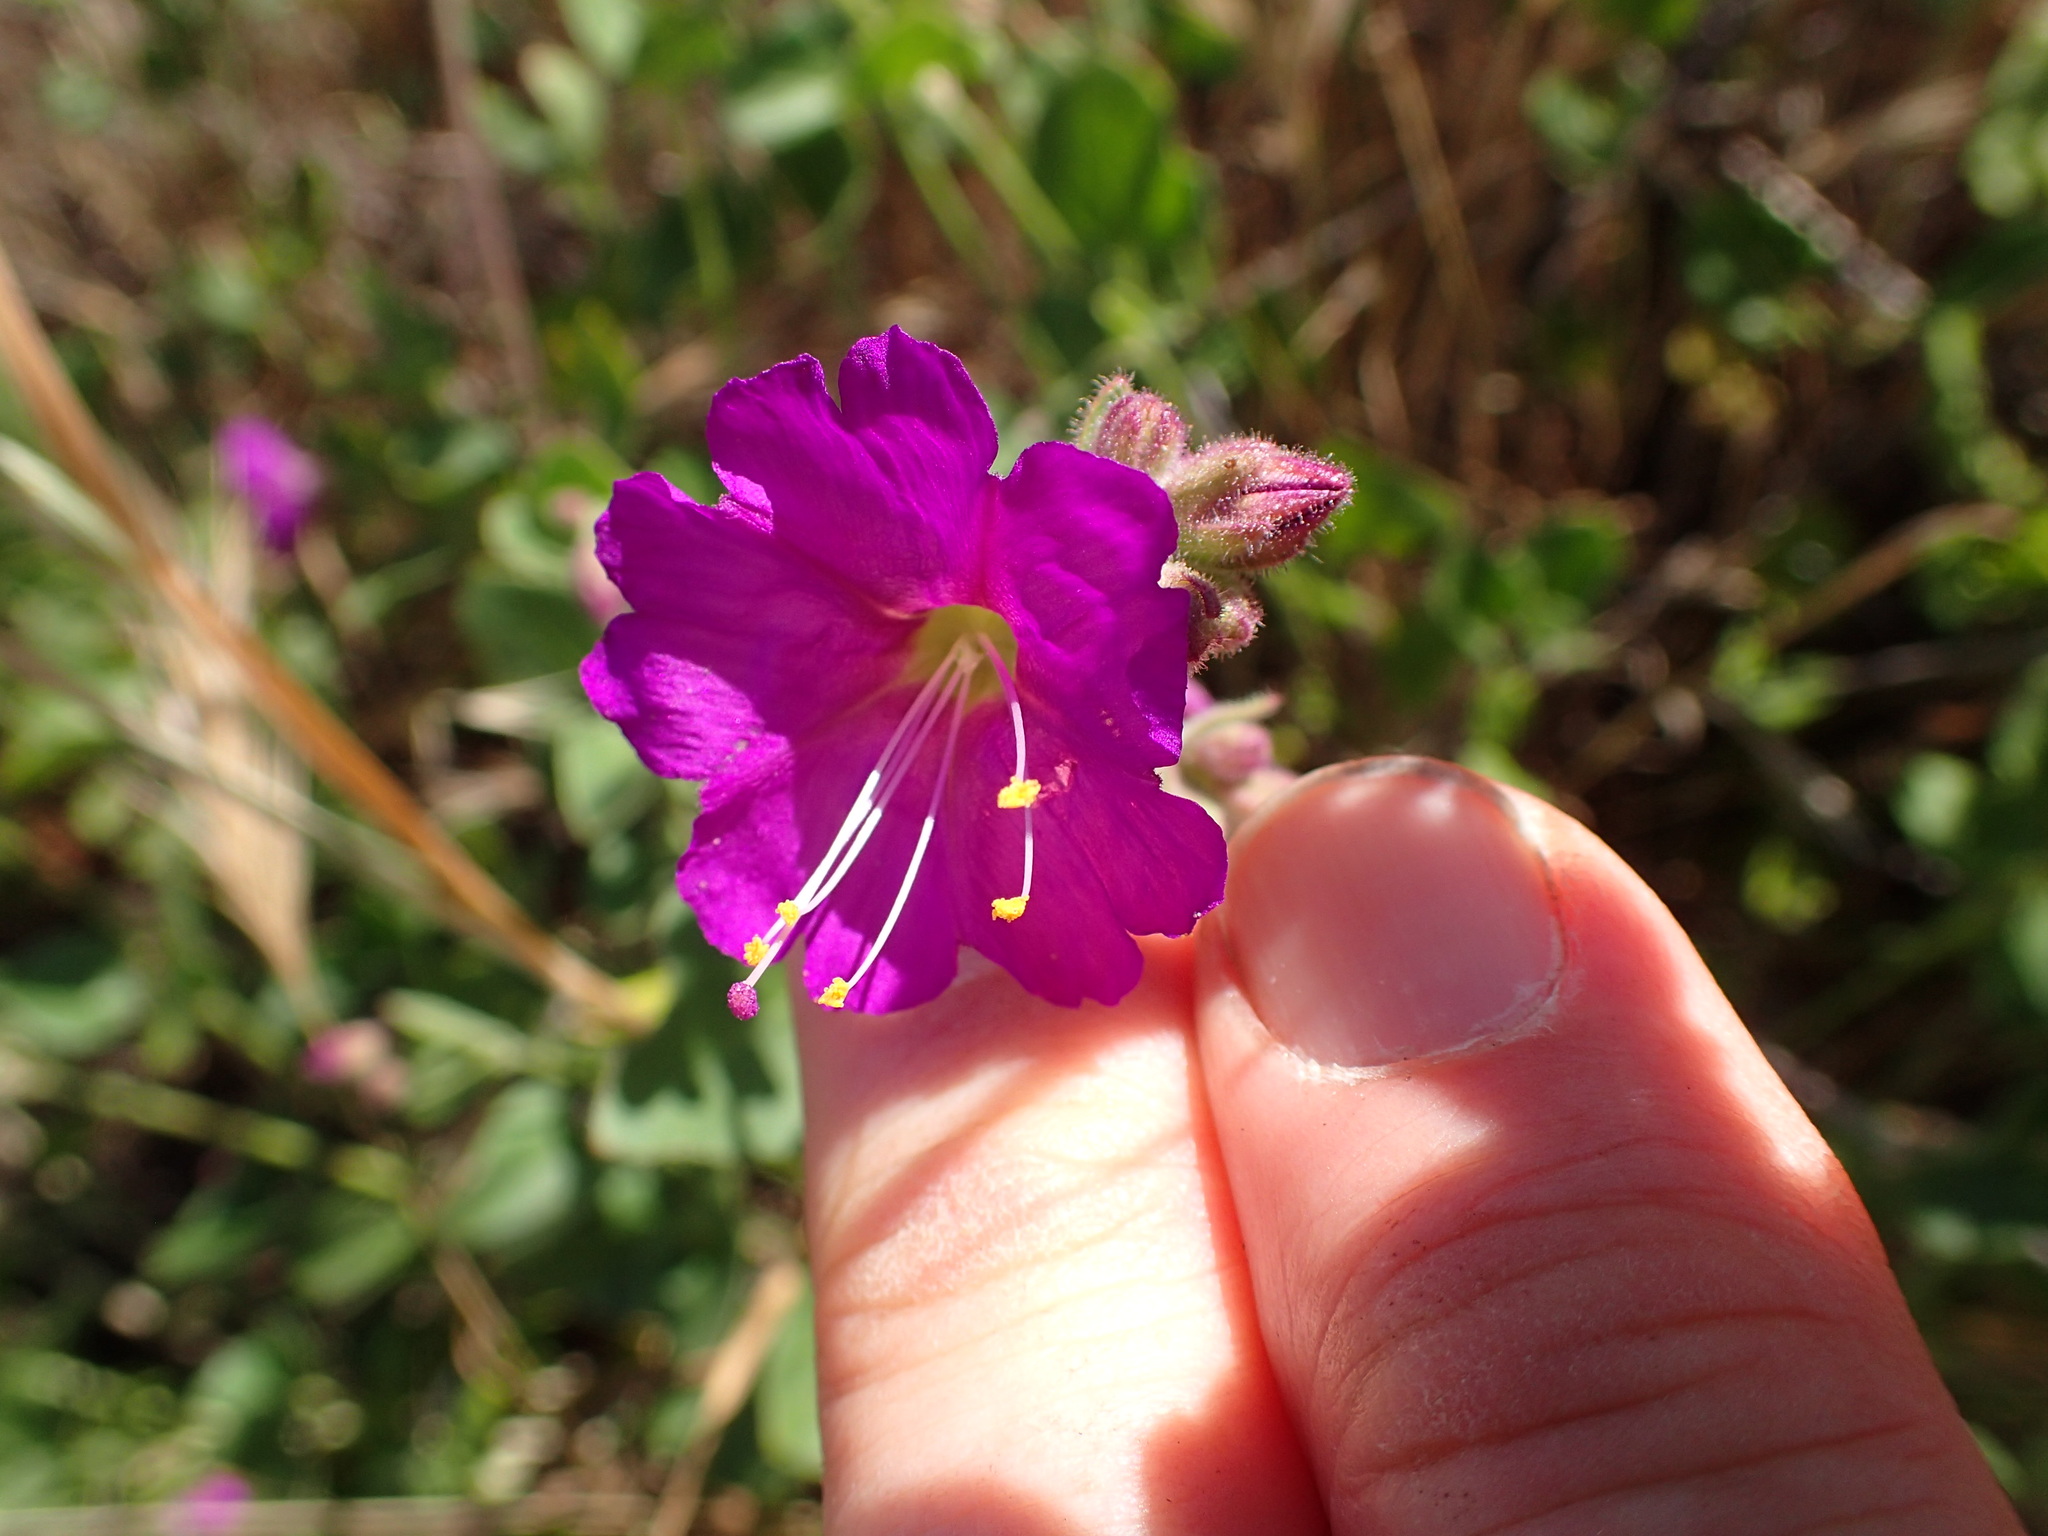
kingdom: Plantae
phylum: Tracheophyta
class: Magnoliopsida
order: Caryophyllales
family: Nyctaginaceae
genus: Mirabilis
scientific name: Mirabilis laevis
